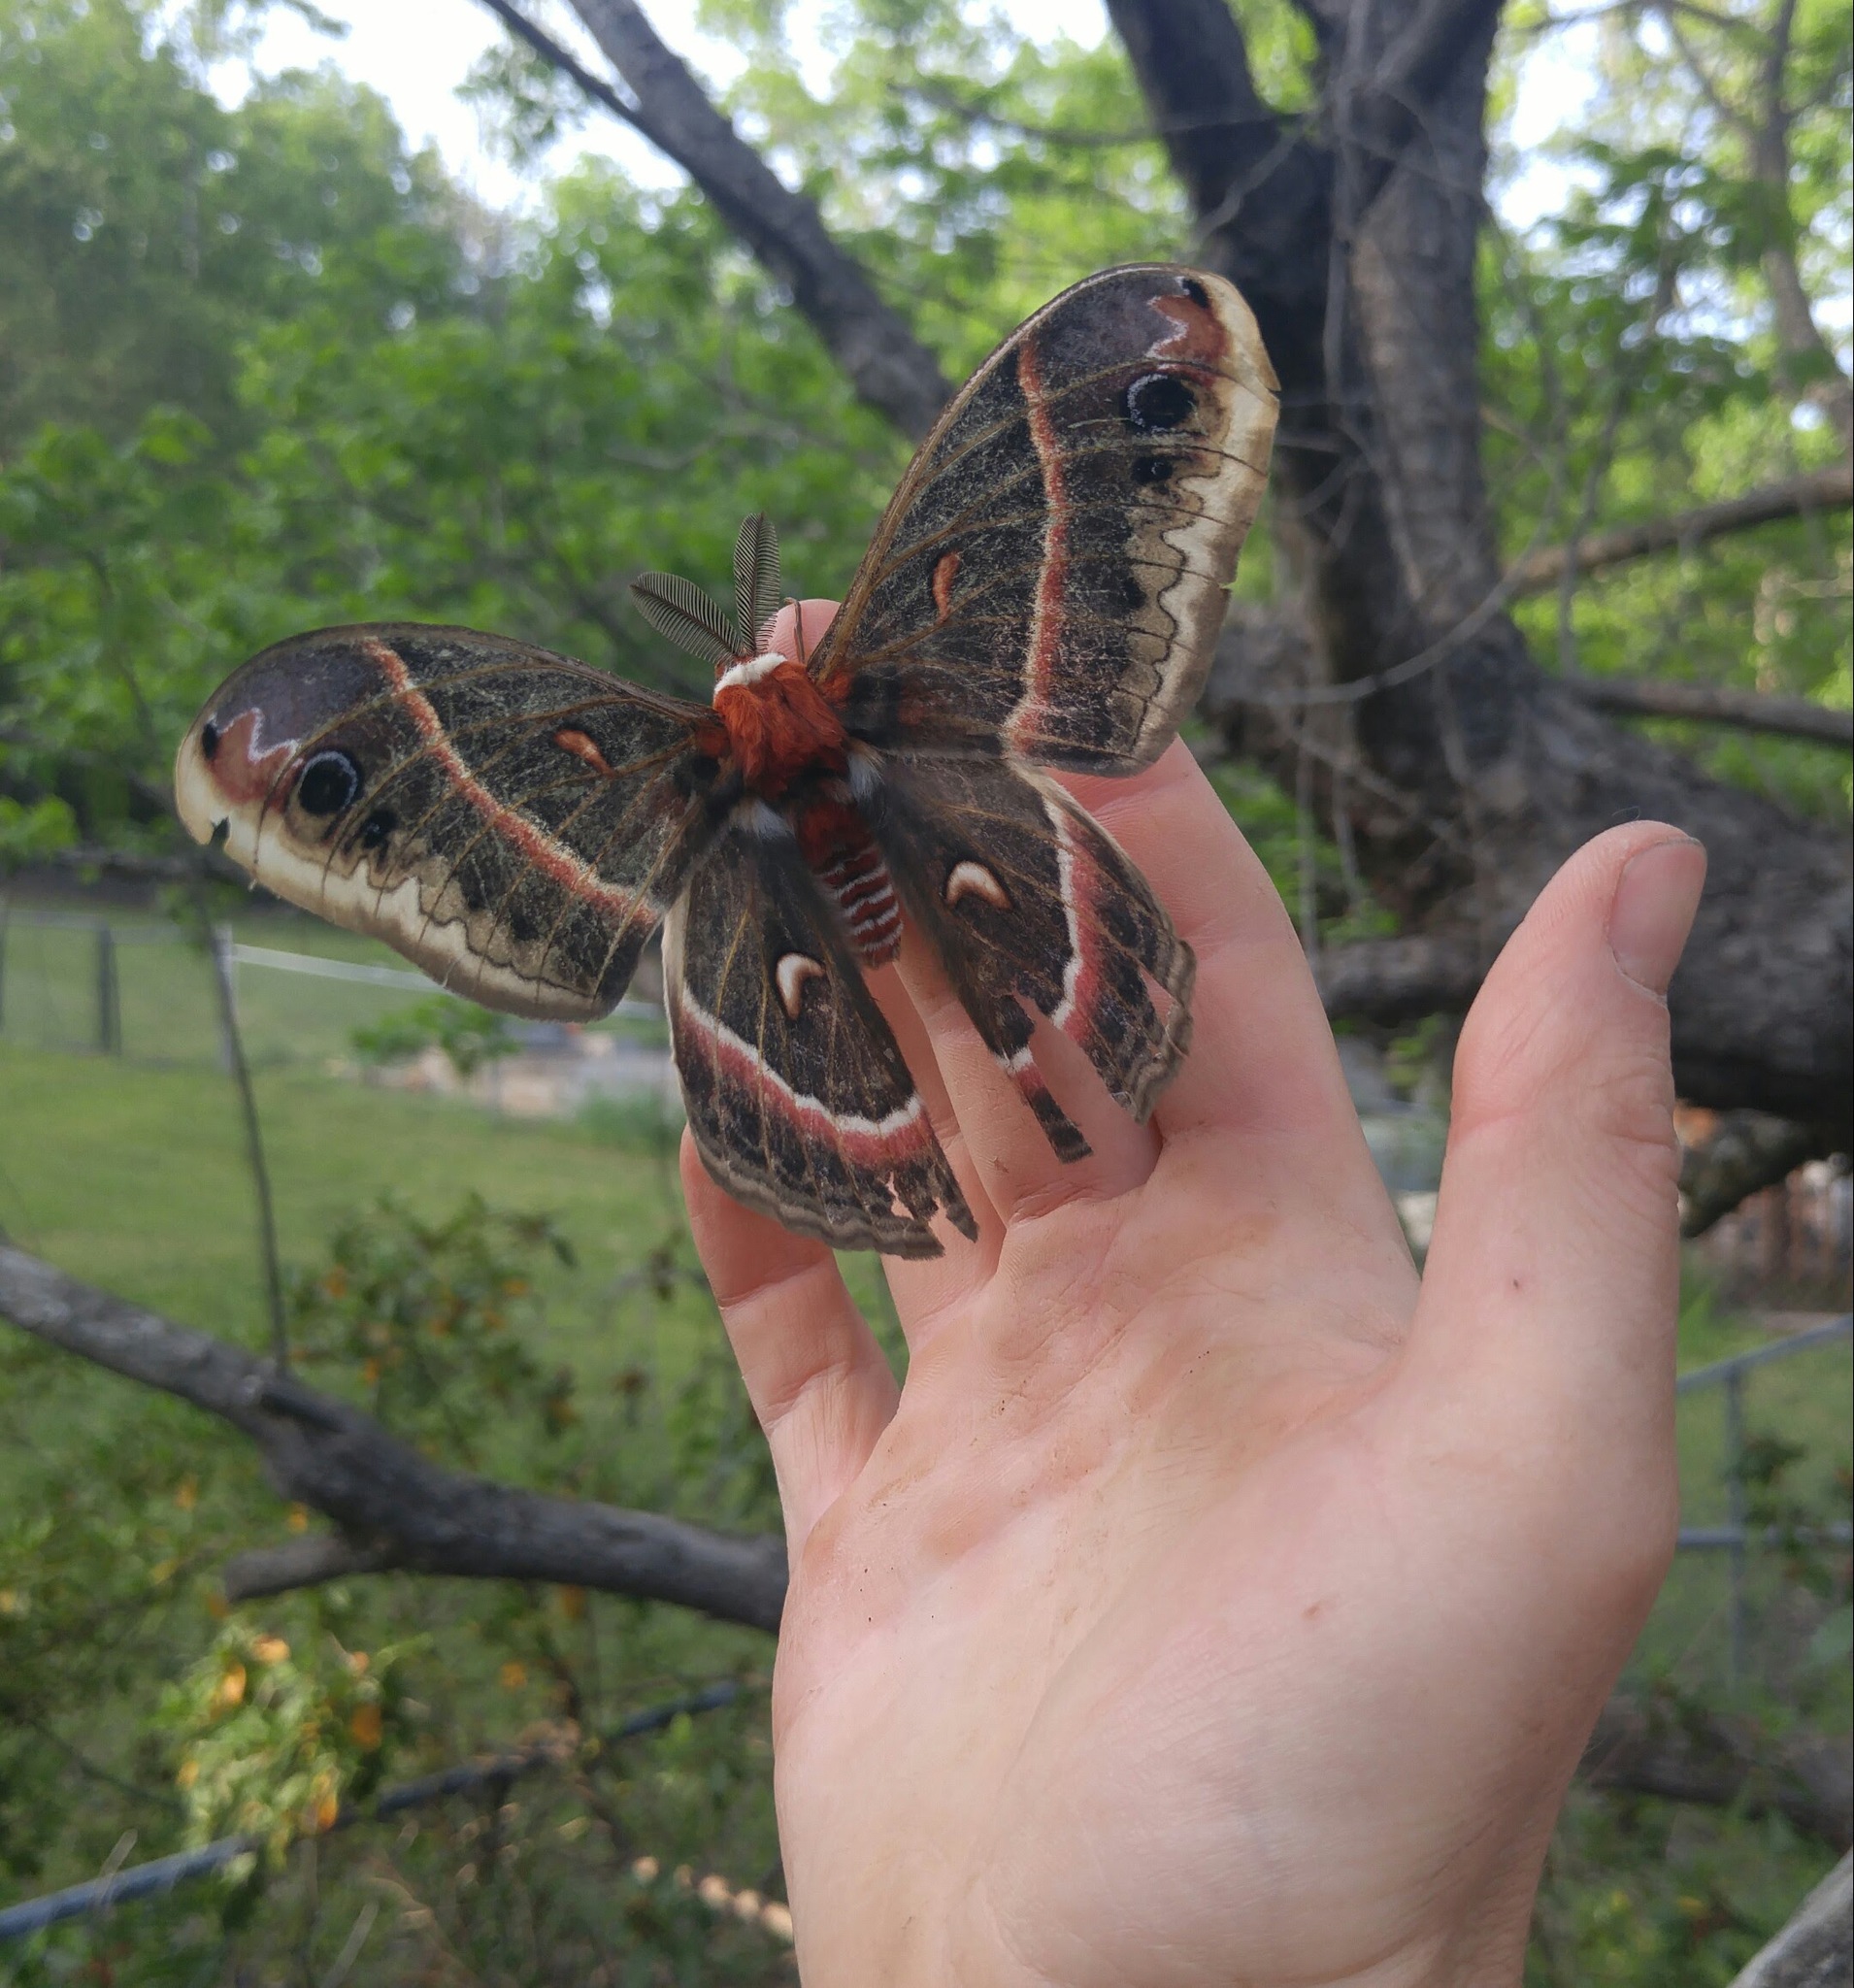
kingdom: Animalia
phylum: Arthropoda
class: Insecta
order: Lepidoptera
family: Saturniidae
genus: Hyalophora
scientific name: Hyalophora cecropia
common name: Cecropia silkmoth
